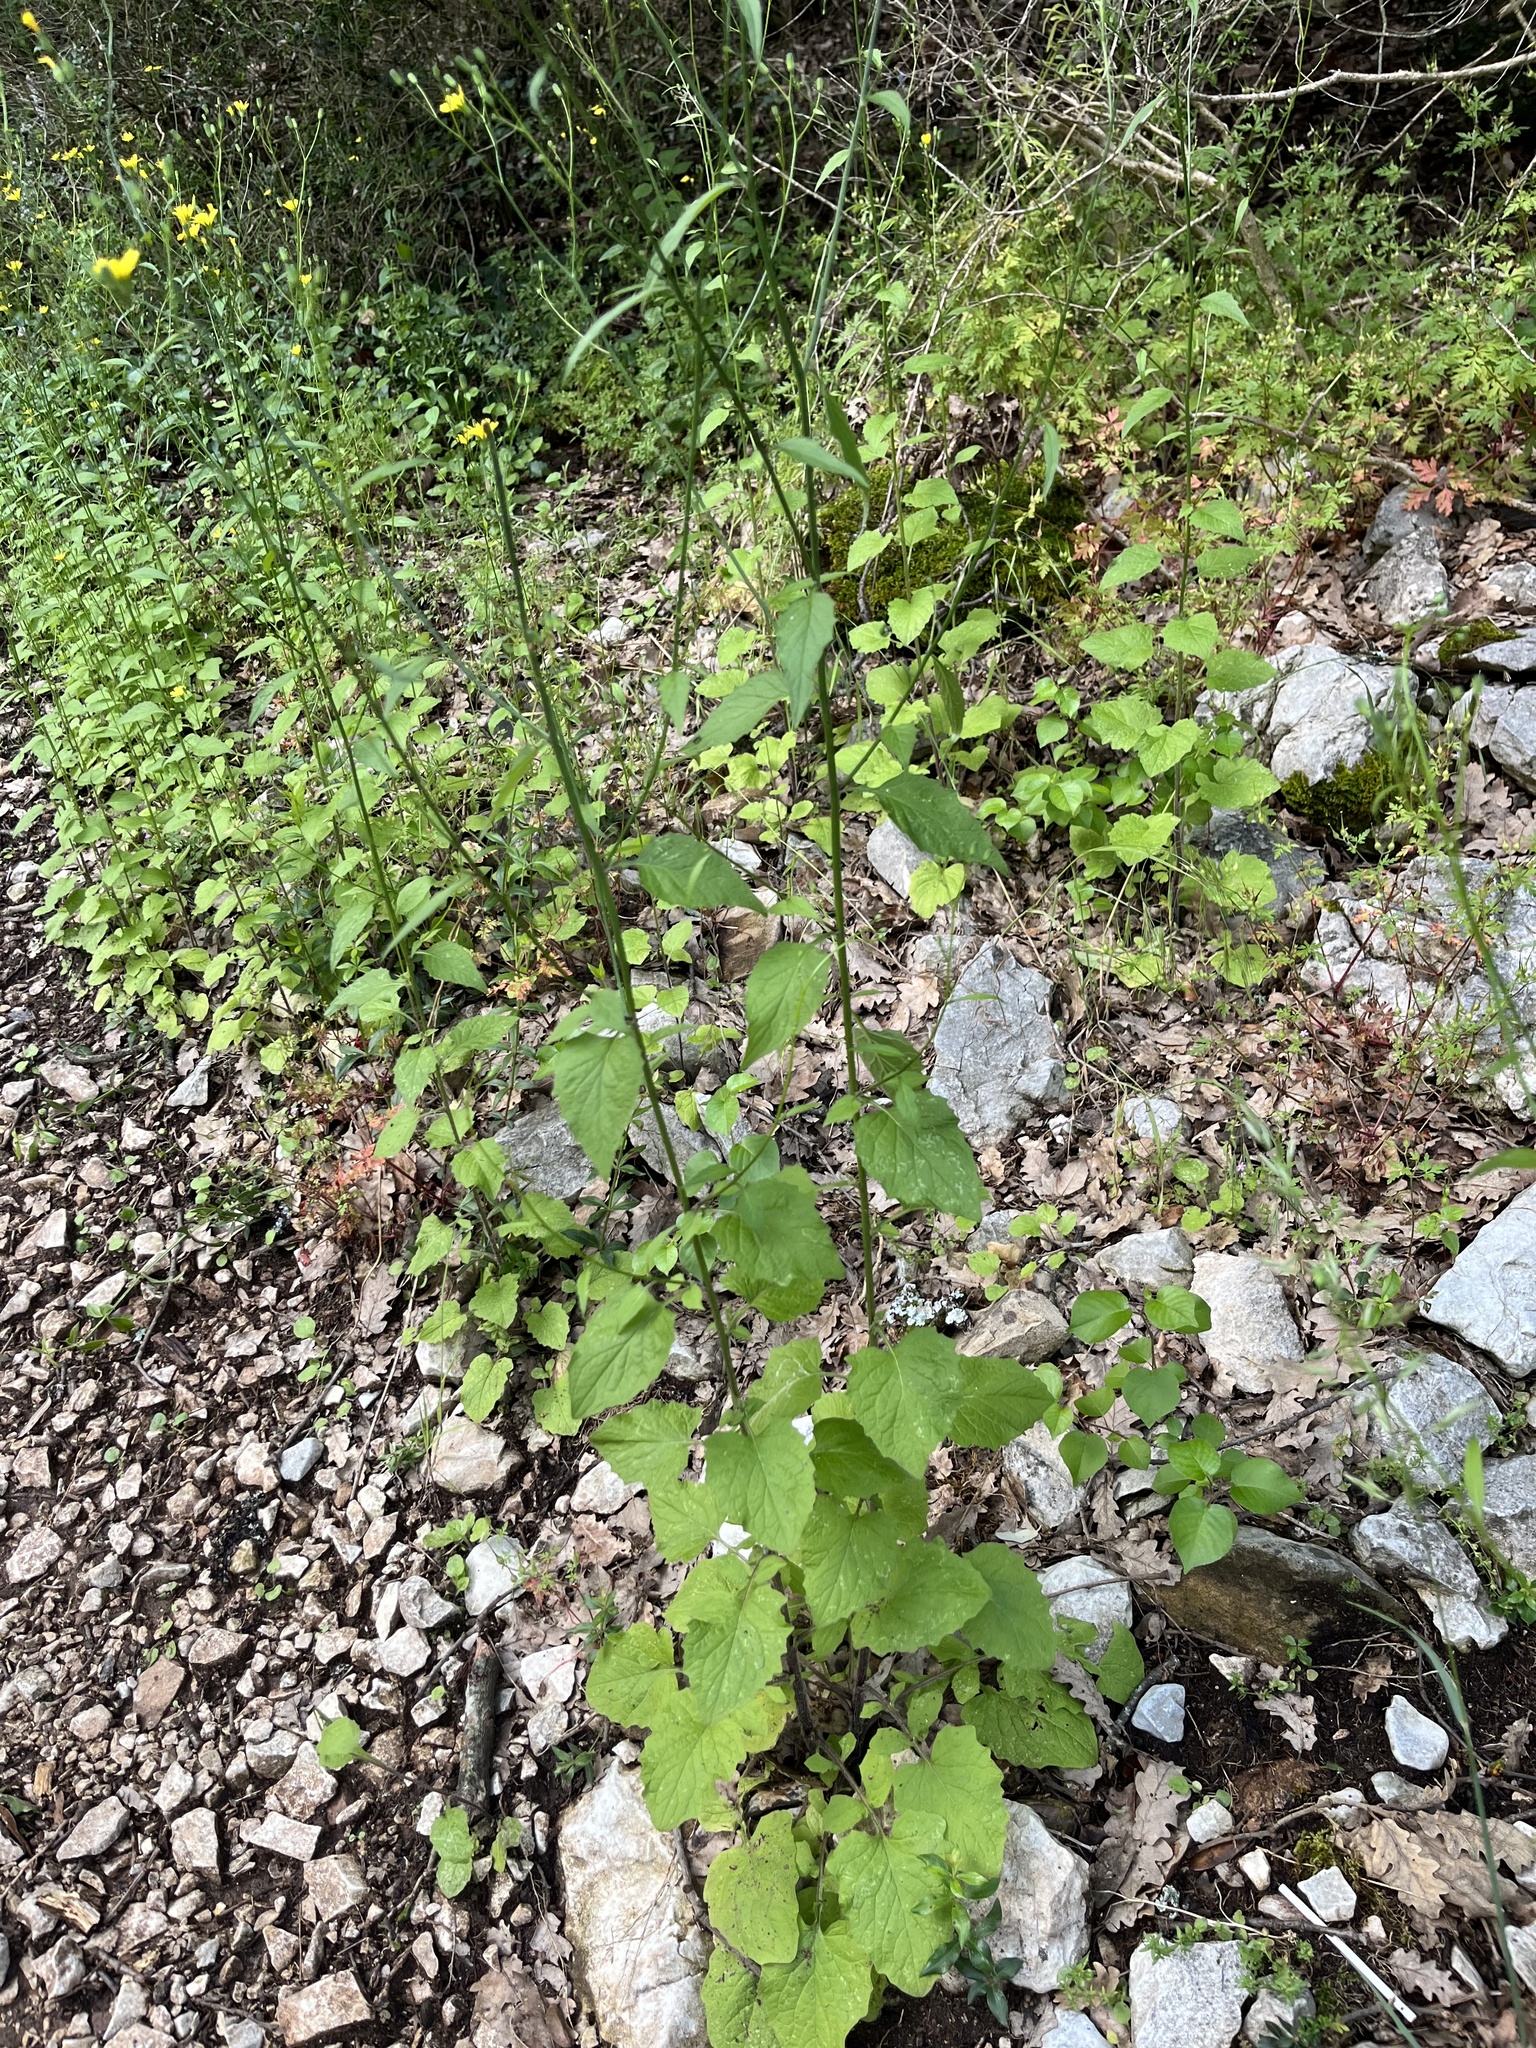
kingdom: Plantae
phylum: Tracheophyta
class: Magnoliopsida
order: Asterales
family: Asteraceae
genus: Lapsana
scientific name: Lapsana communis
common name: Nipplewort
